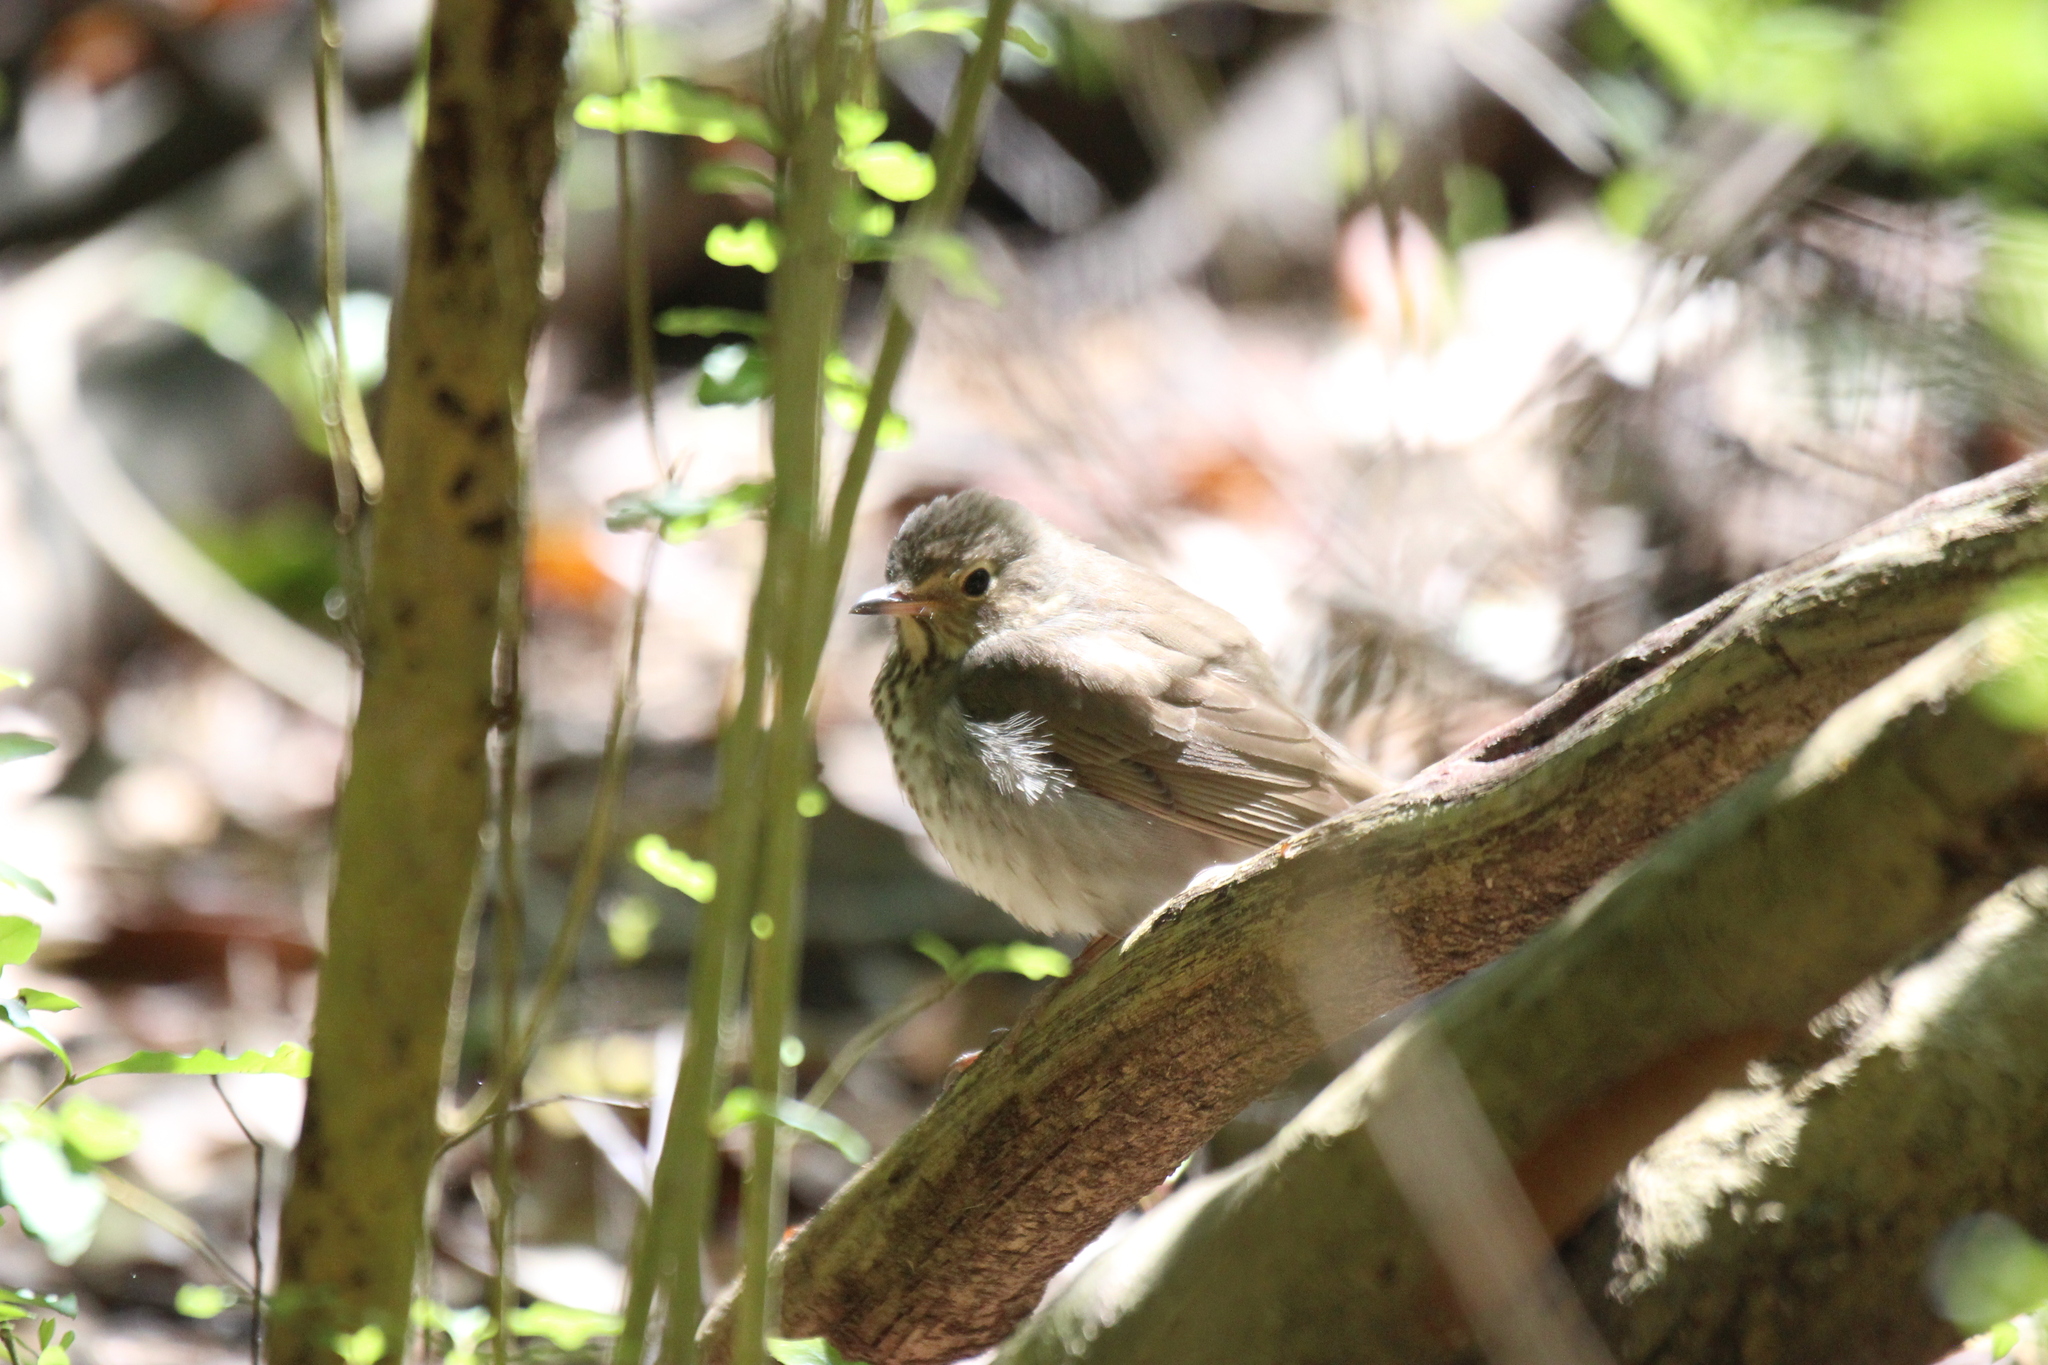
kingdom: Animalia
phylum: Chordata
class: Aves
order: Passeriformes
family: Turdidae
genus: Catharus
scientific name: Catharus ustulatus
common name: Swainson's thrush
